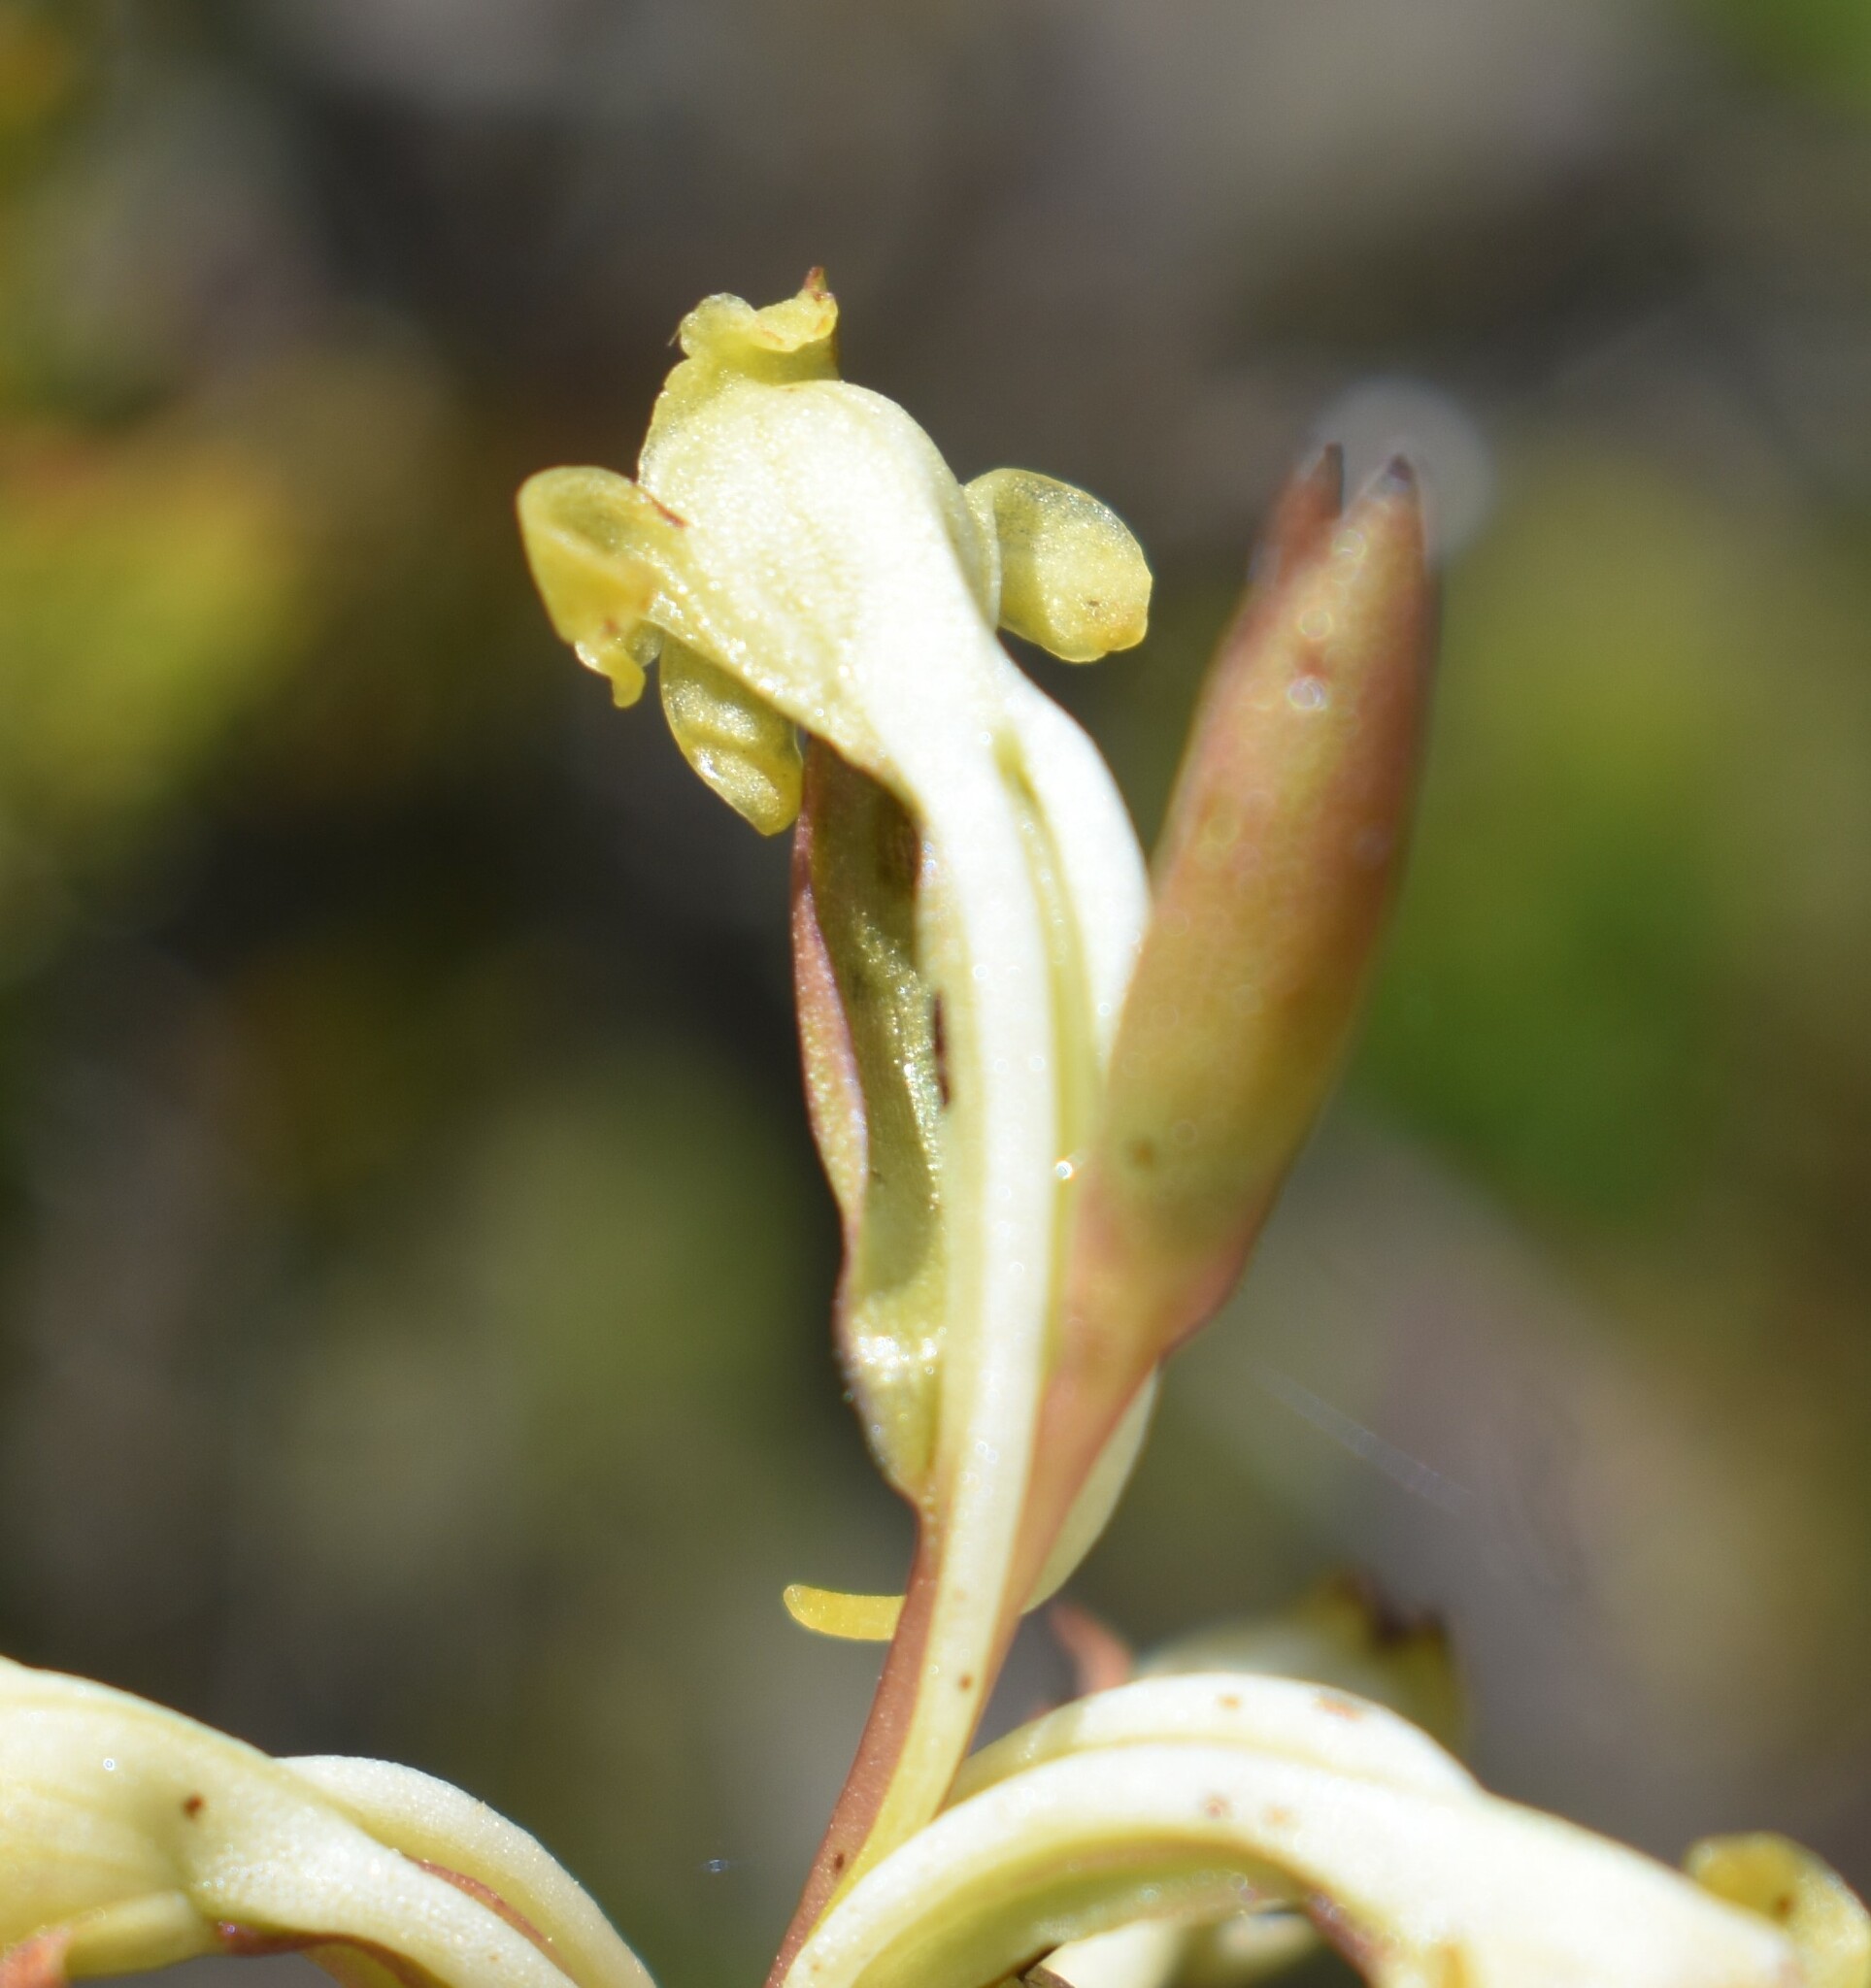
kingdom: Plantae
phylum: Tracheophyta
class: Liliopsida
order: Asparagales
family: Orchidaceae
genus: Satyrium
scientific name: Satyrium outeniquense
